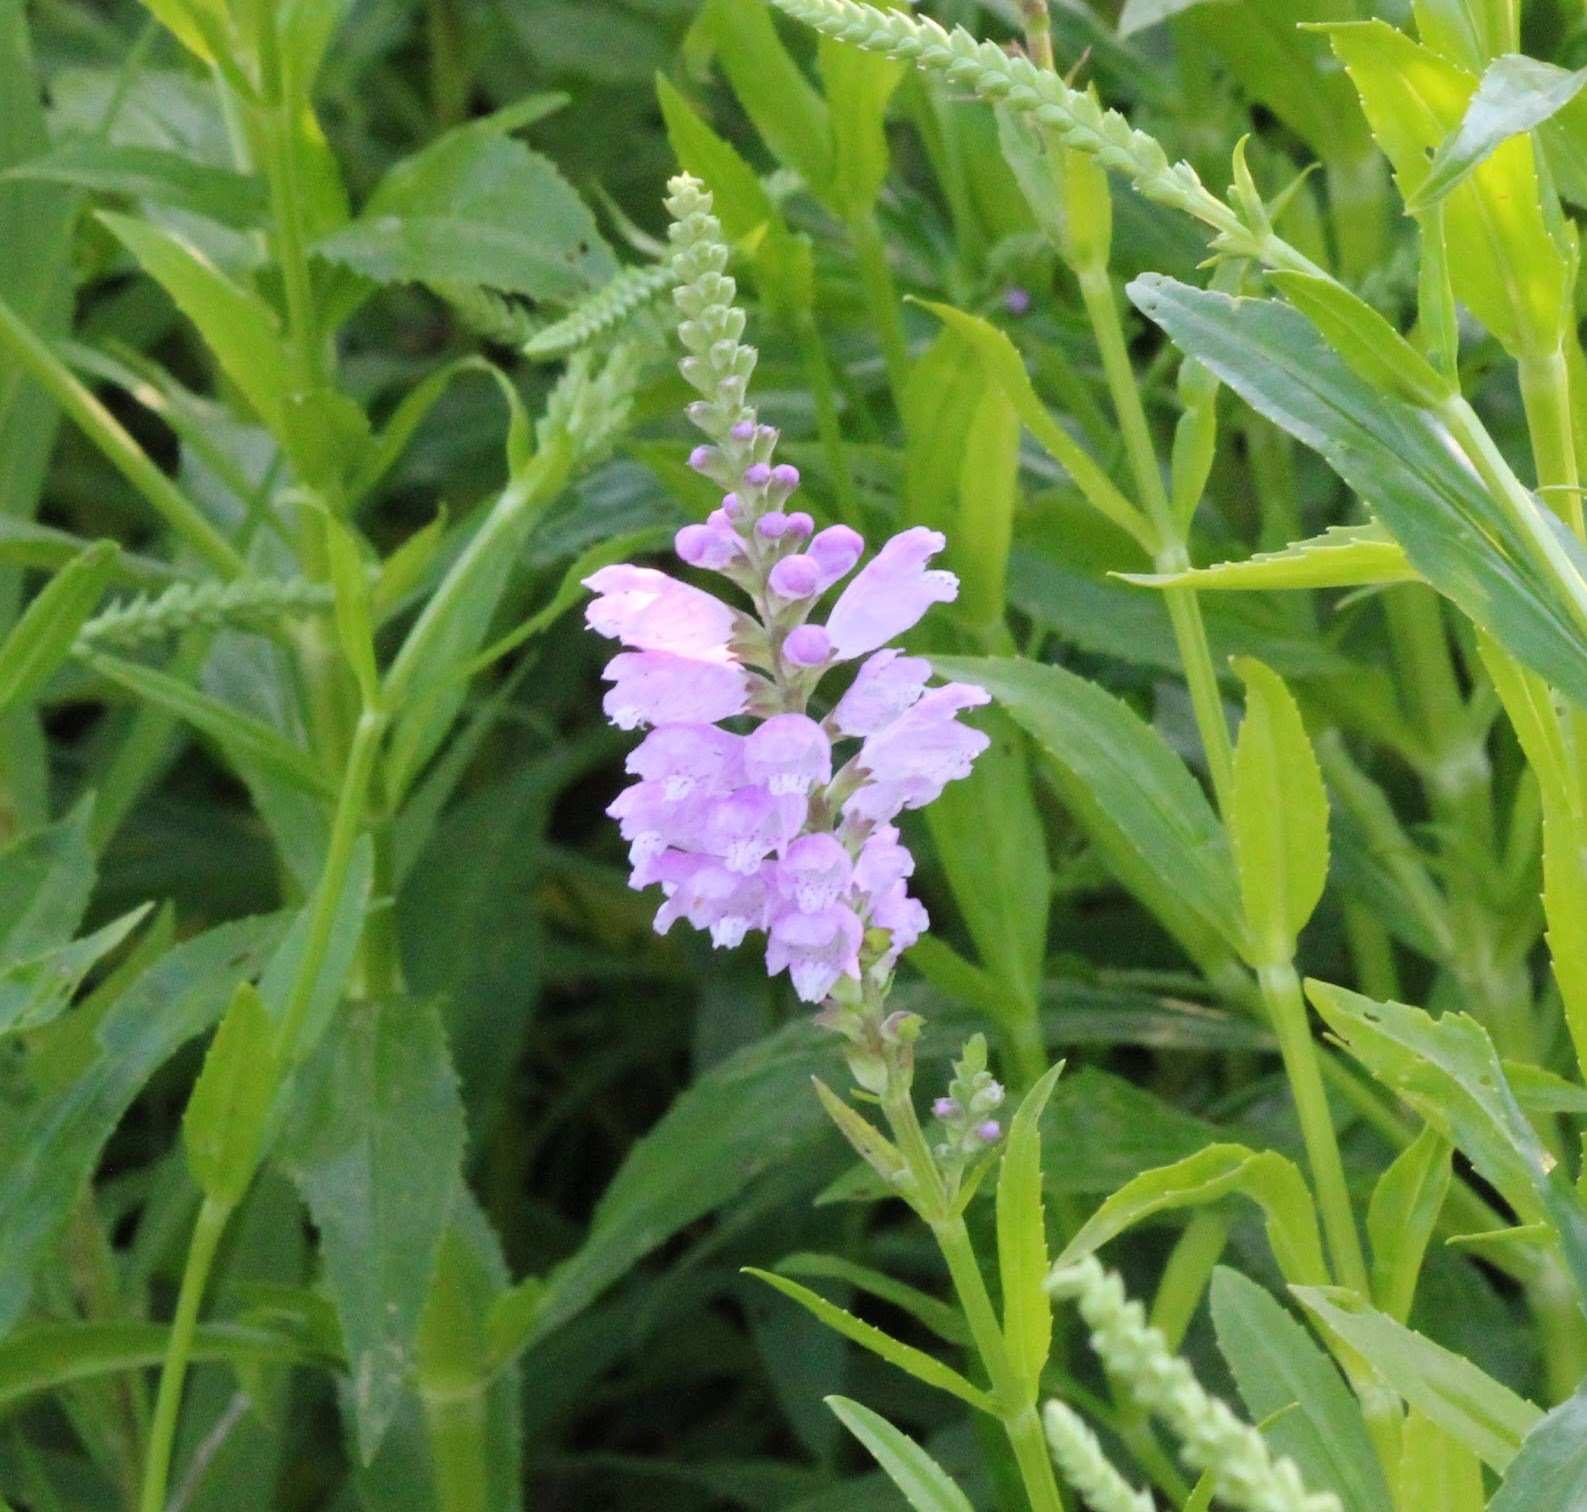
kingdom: Plantae
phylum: Tracheophyta
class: Magnoliopsida
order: Lamiales
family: Lamiaceae
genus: Physostegia
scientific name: Physostegia virginiana
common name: Obedient-plant
